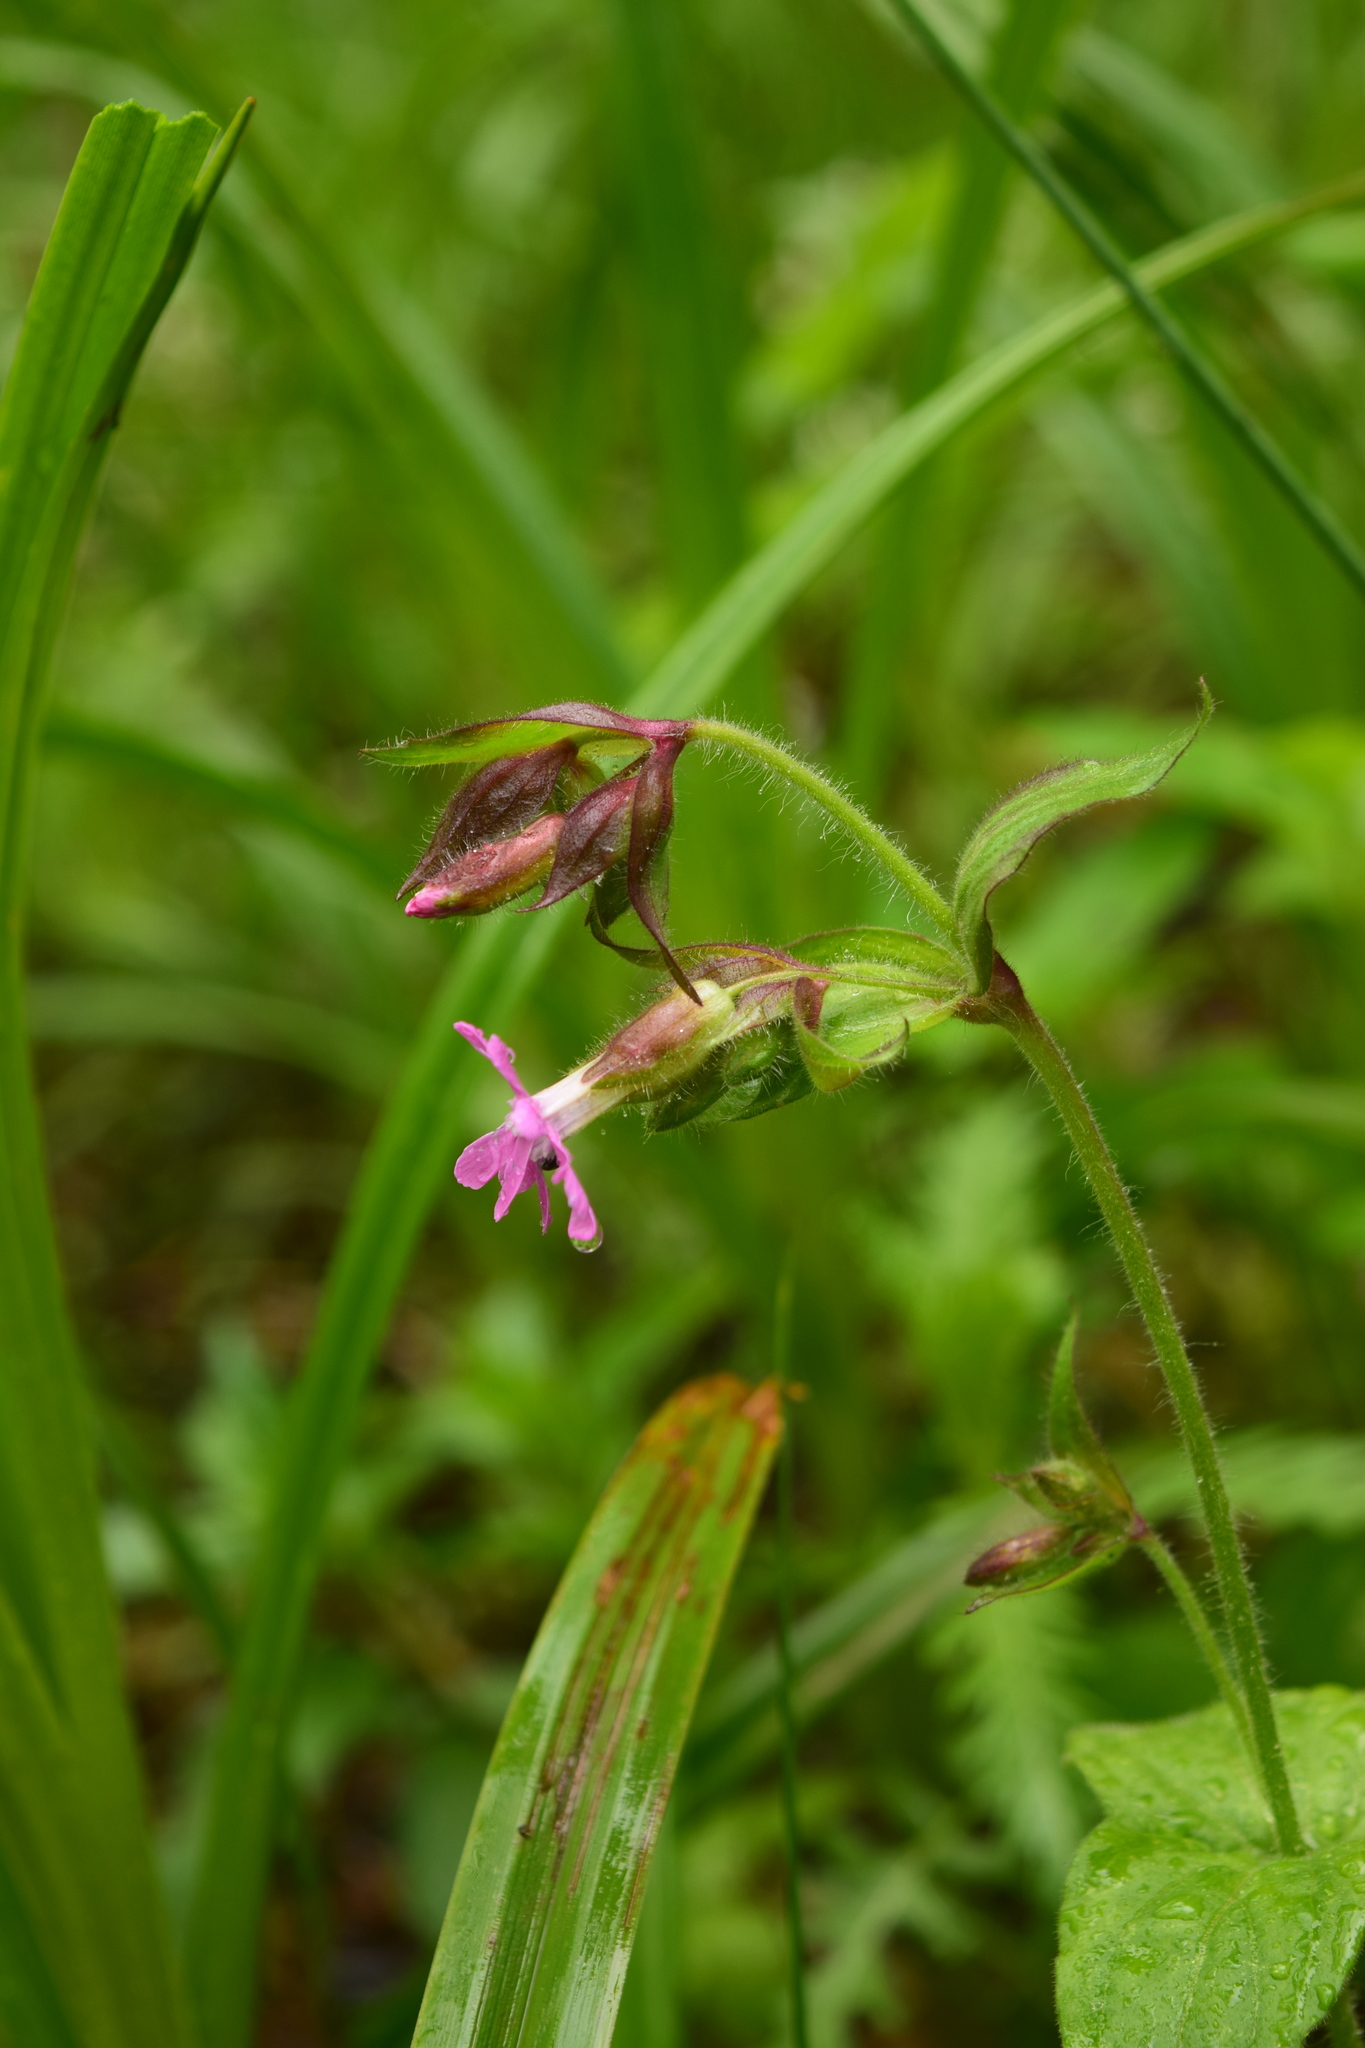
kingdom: Plantae
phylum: Tracheophyta
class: Magnoliopsida
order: Caryophyllales
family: Caryophyllaceae
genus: Silene
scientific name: Silene dioica
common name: Red campion
